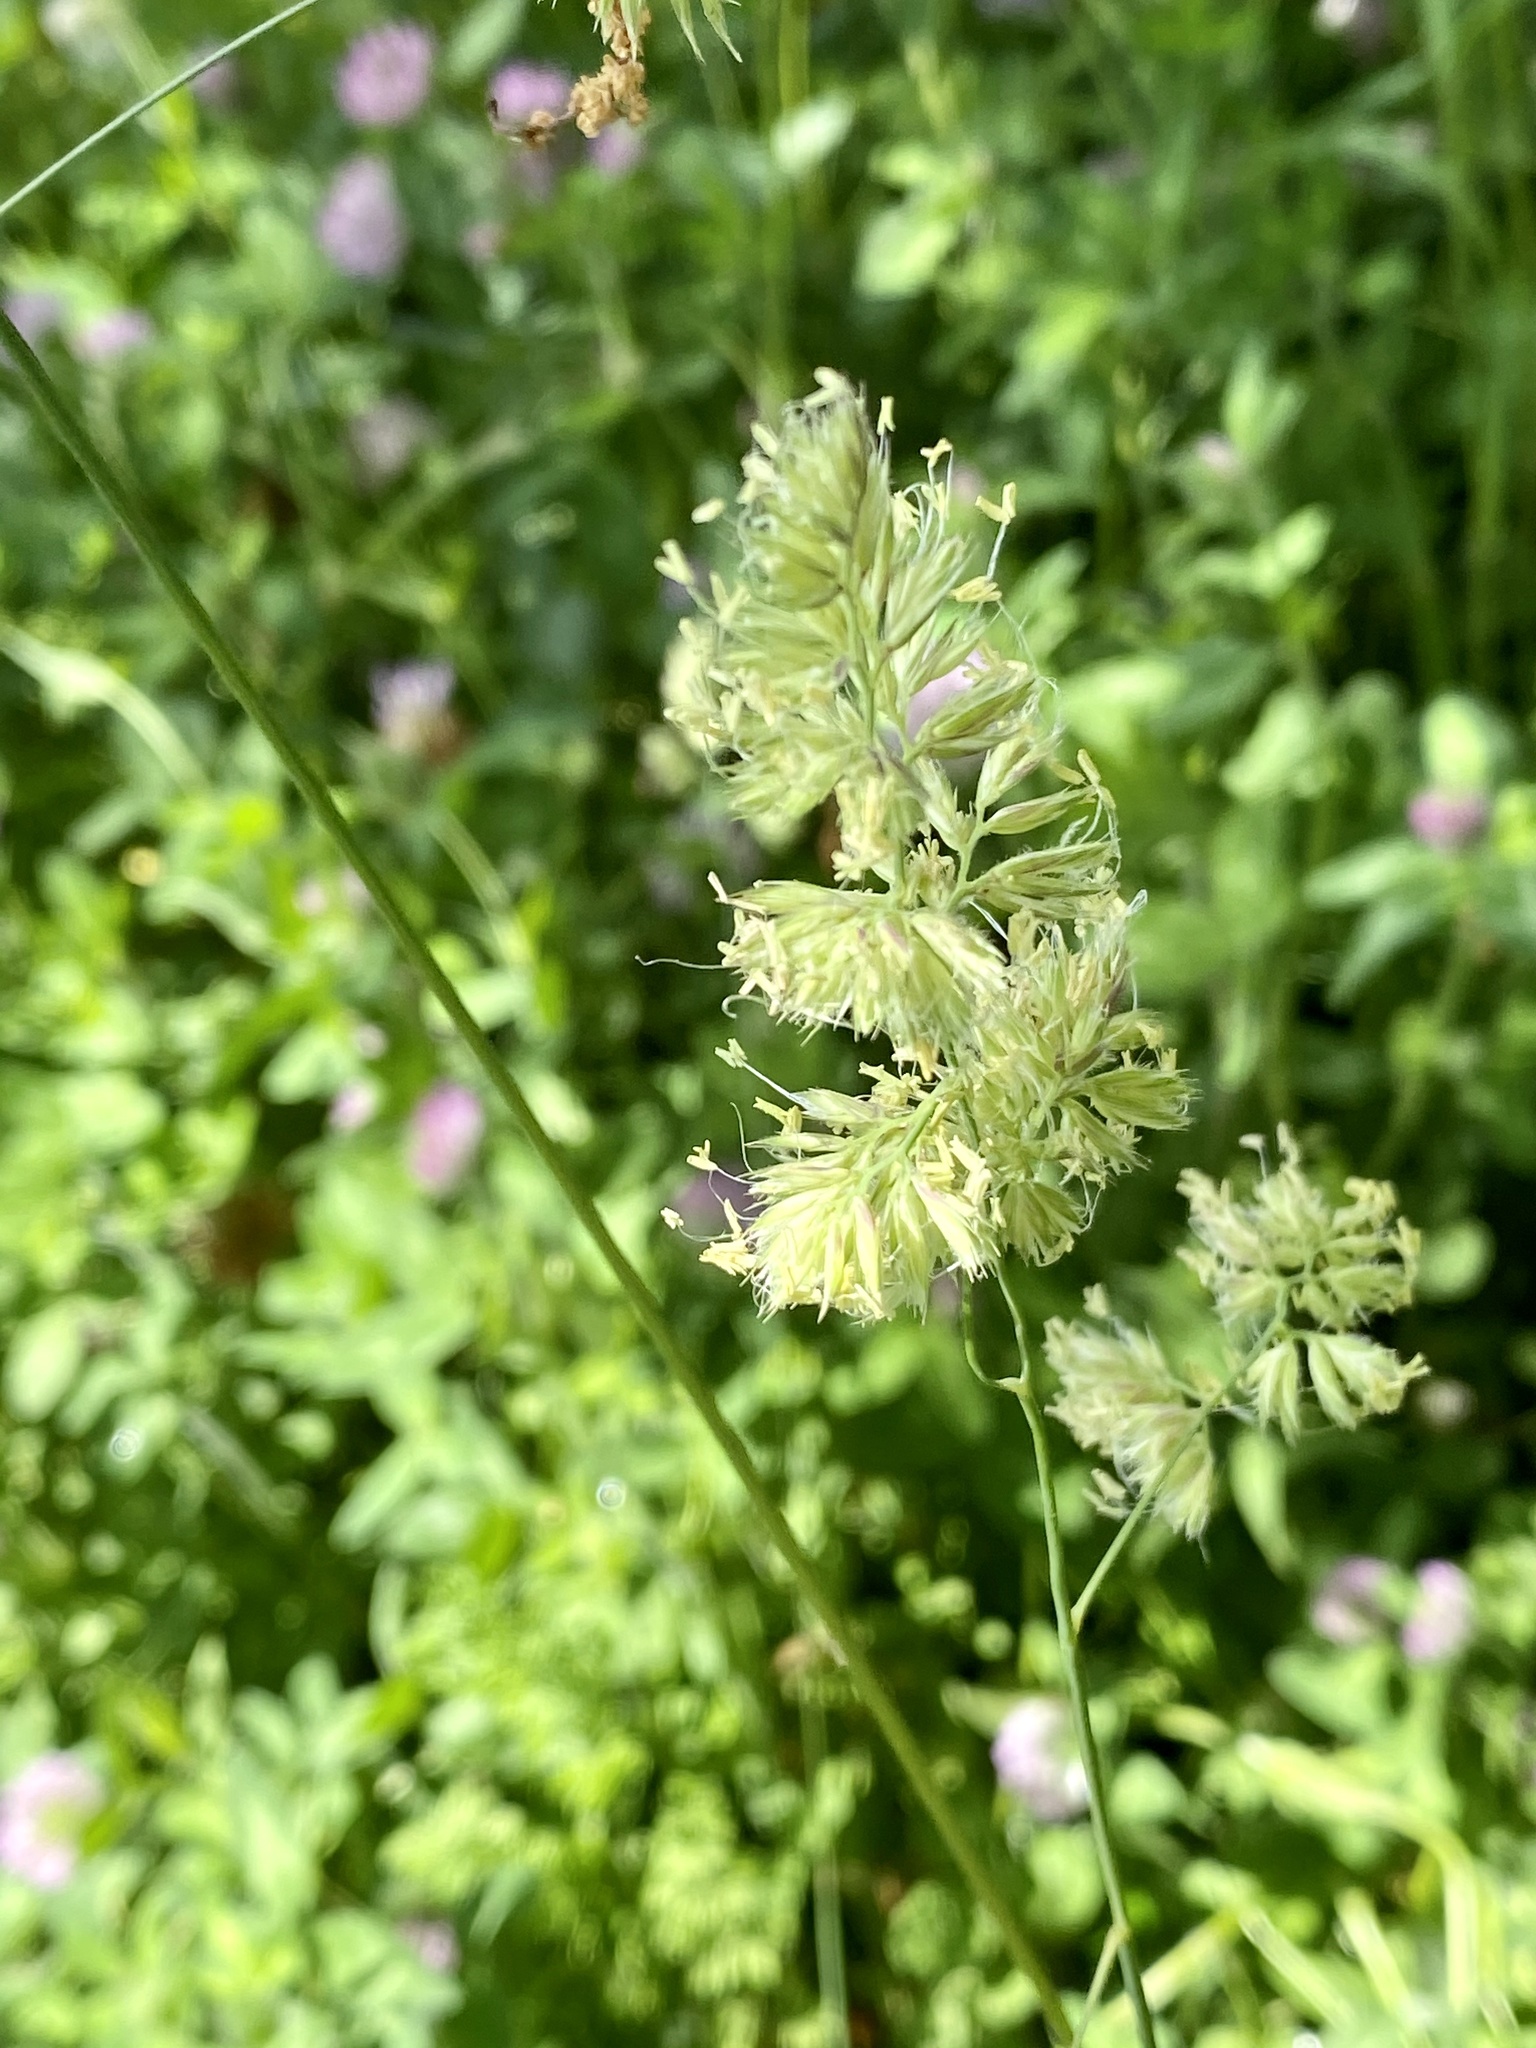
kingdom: Plantae
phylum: Tracheophyta
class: Liliopsida
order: Poales
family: Poaceae
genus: Dactylis
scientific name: Dactylis glomerata
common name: Orchardgrass
